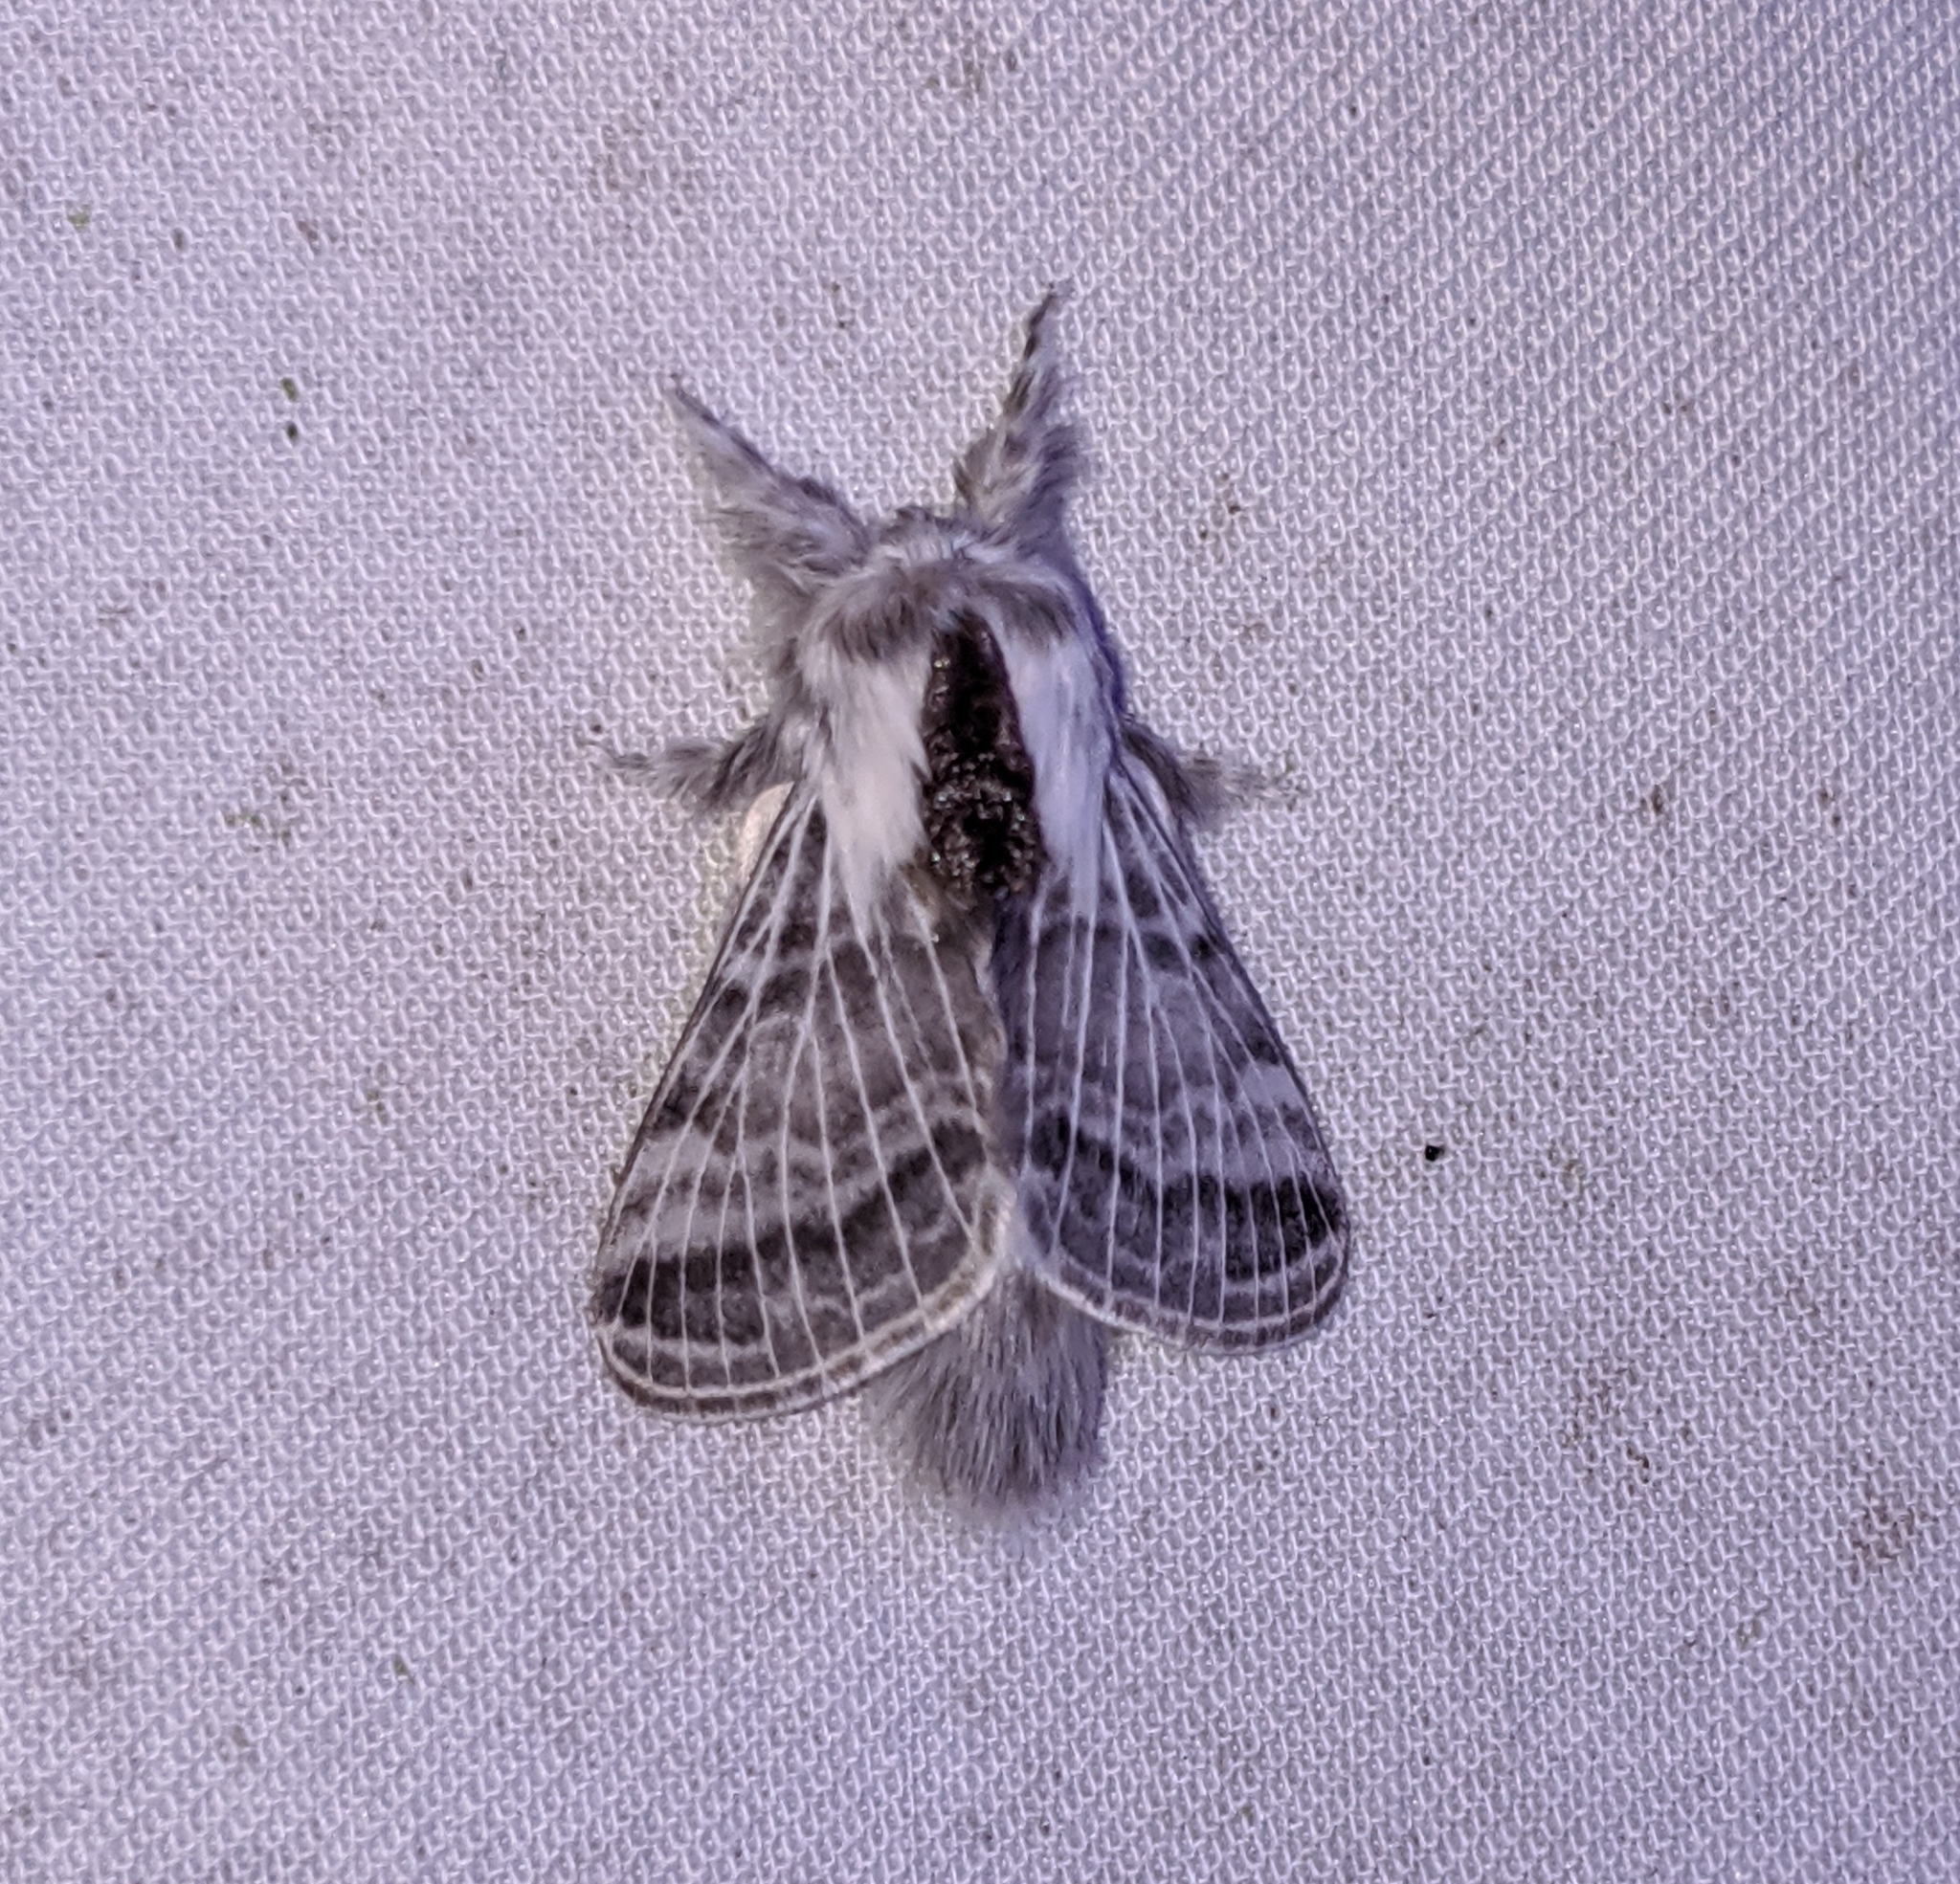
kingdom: Animalia
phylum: Arthropoda
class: Insecta
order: Lepidoptera
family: Lasiocampidae
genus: Tolype
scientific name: Tolype distincta
